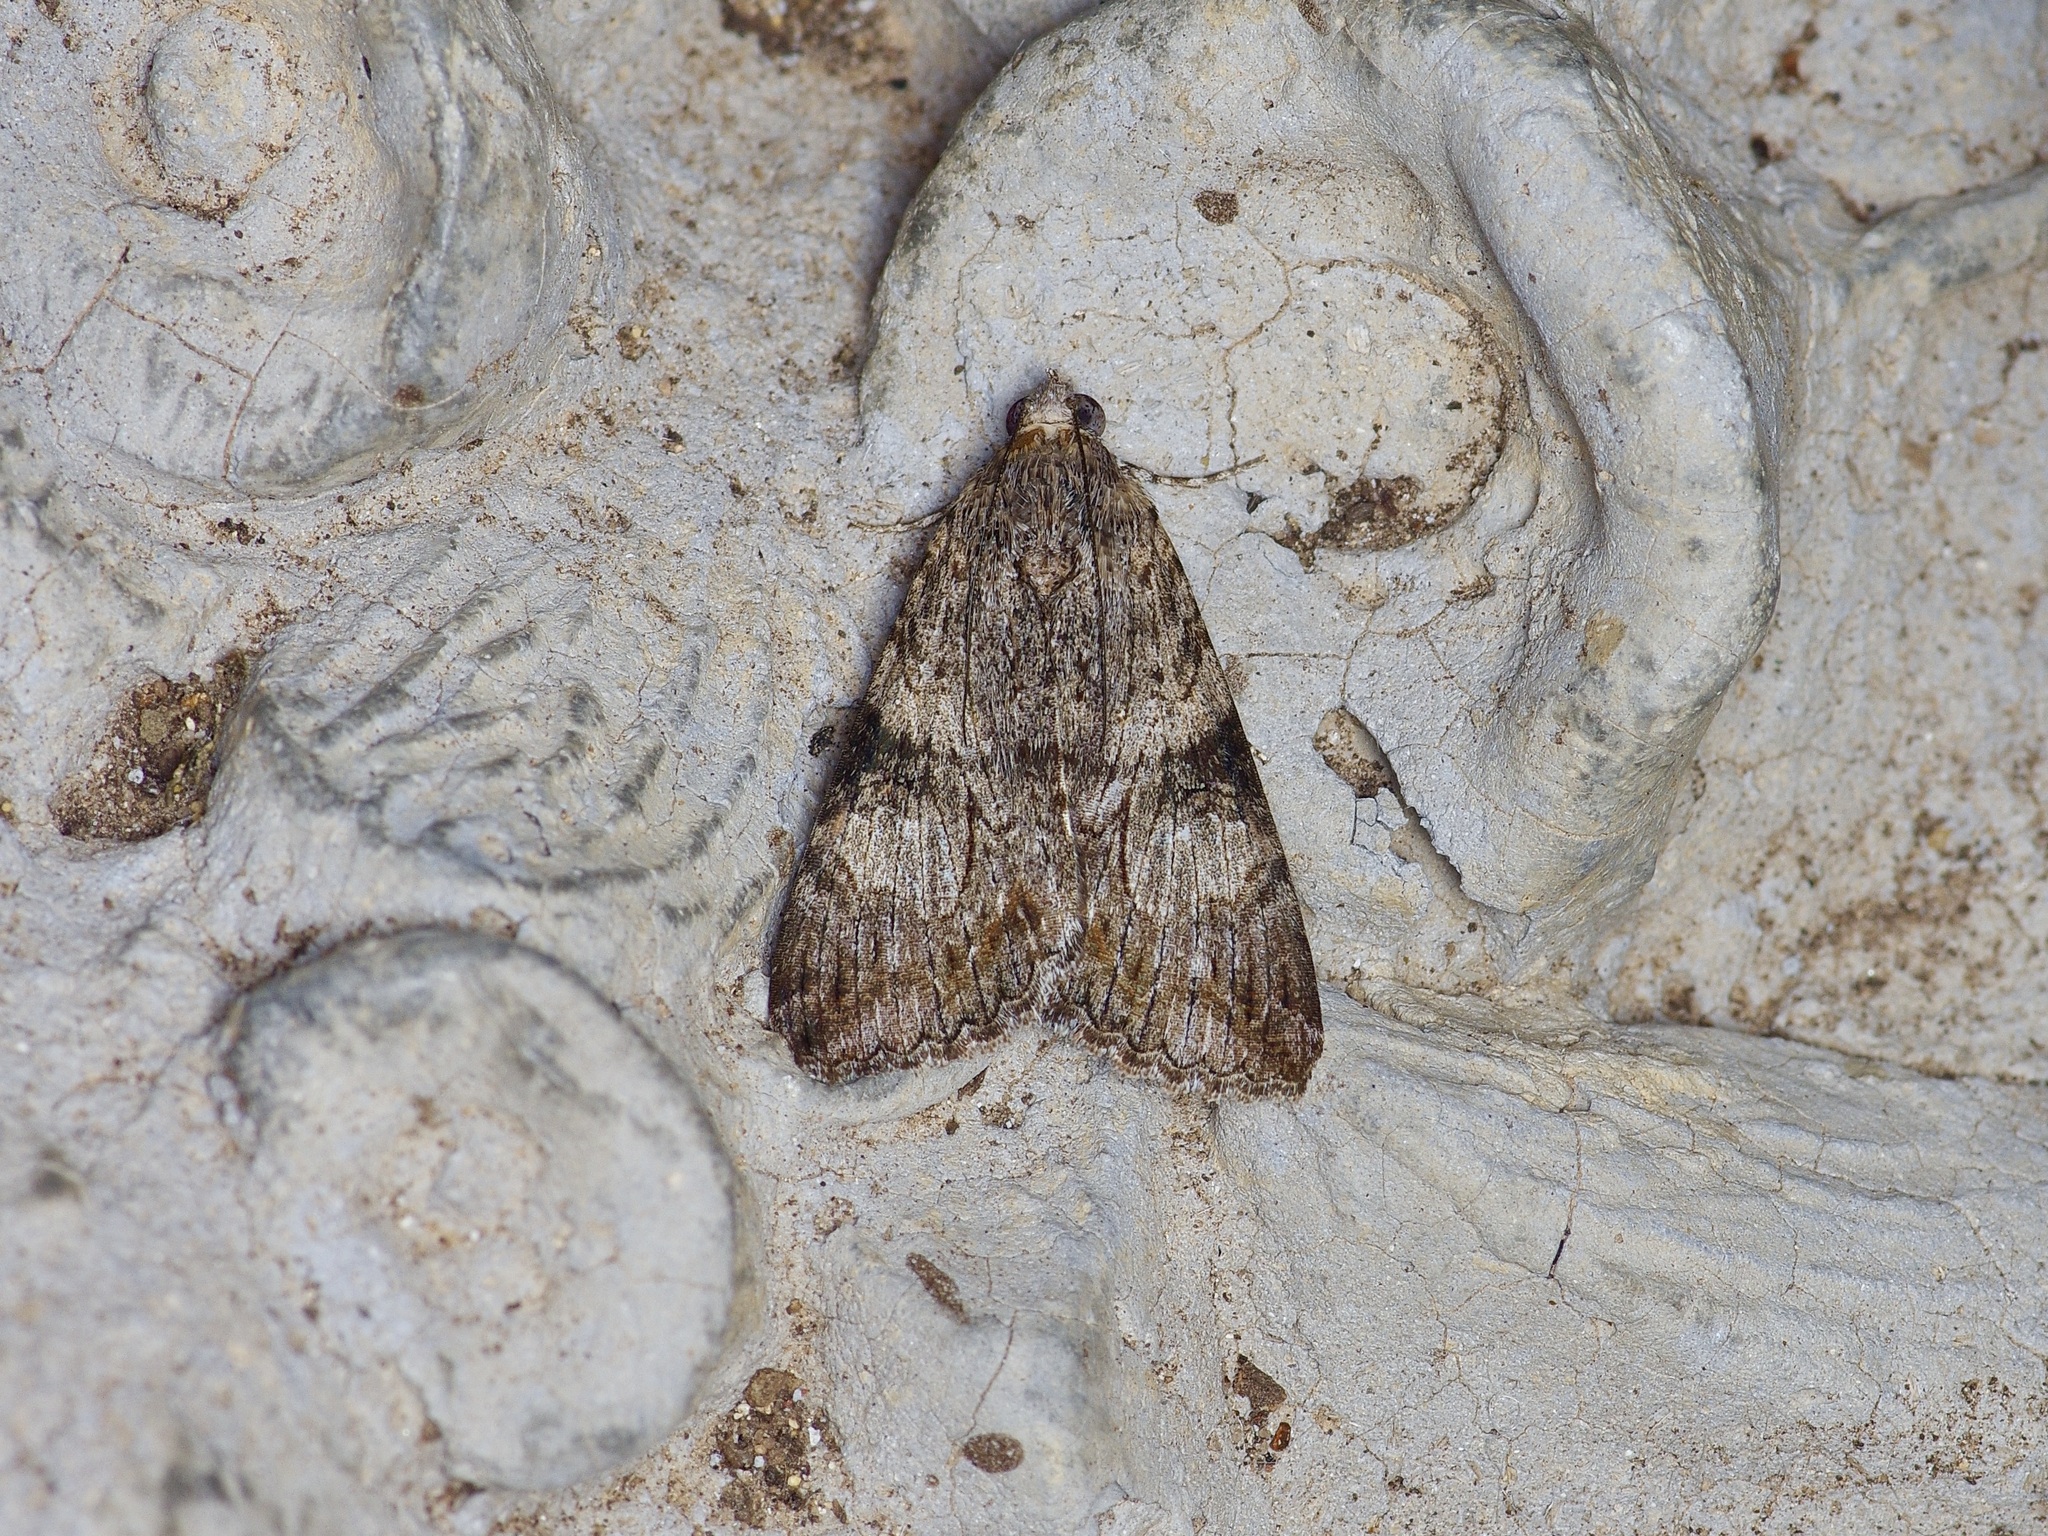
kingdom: Animalia
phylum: Arthropoda
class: Insecta
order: Lepidoptera
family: Erebidae
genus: Melipotis
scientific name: Melipotis jucunda
